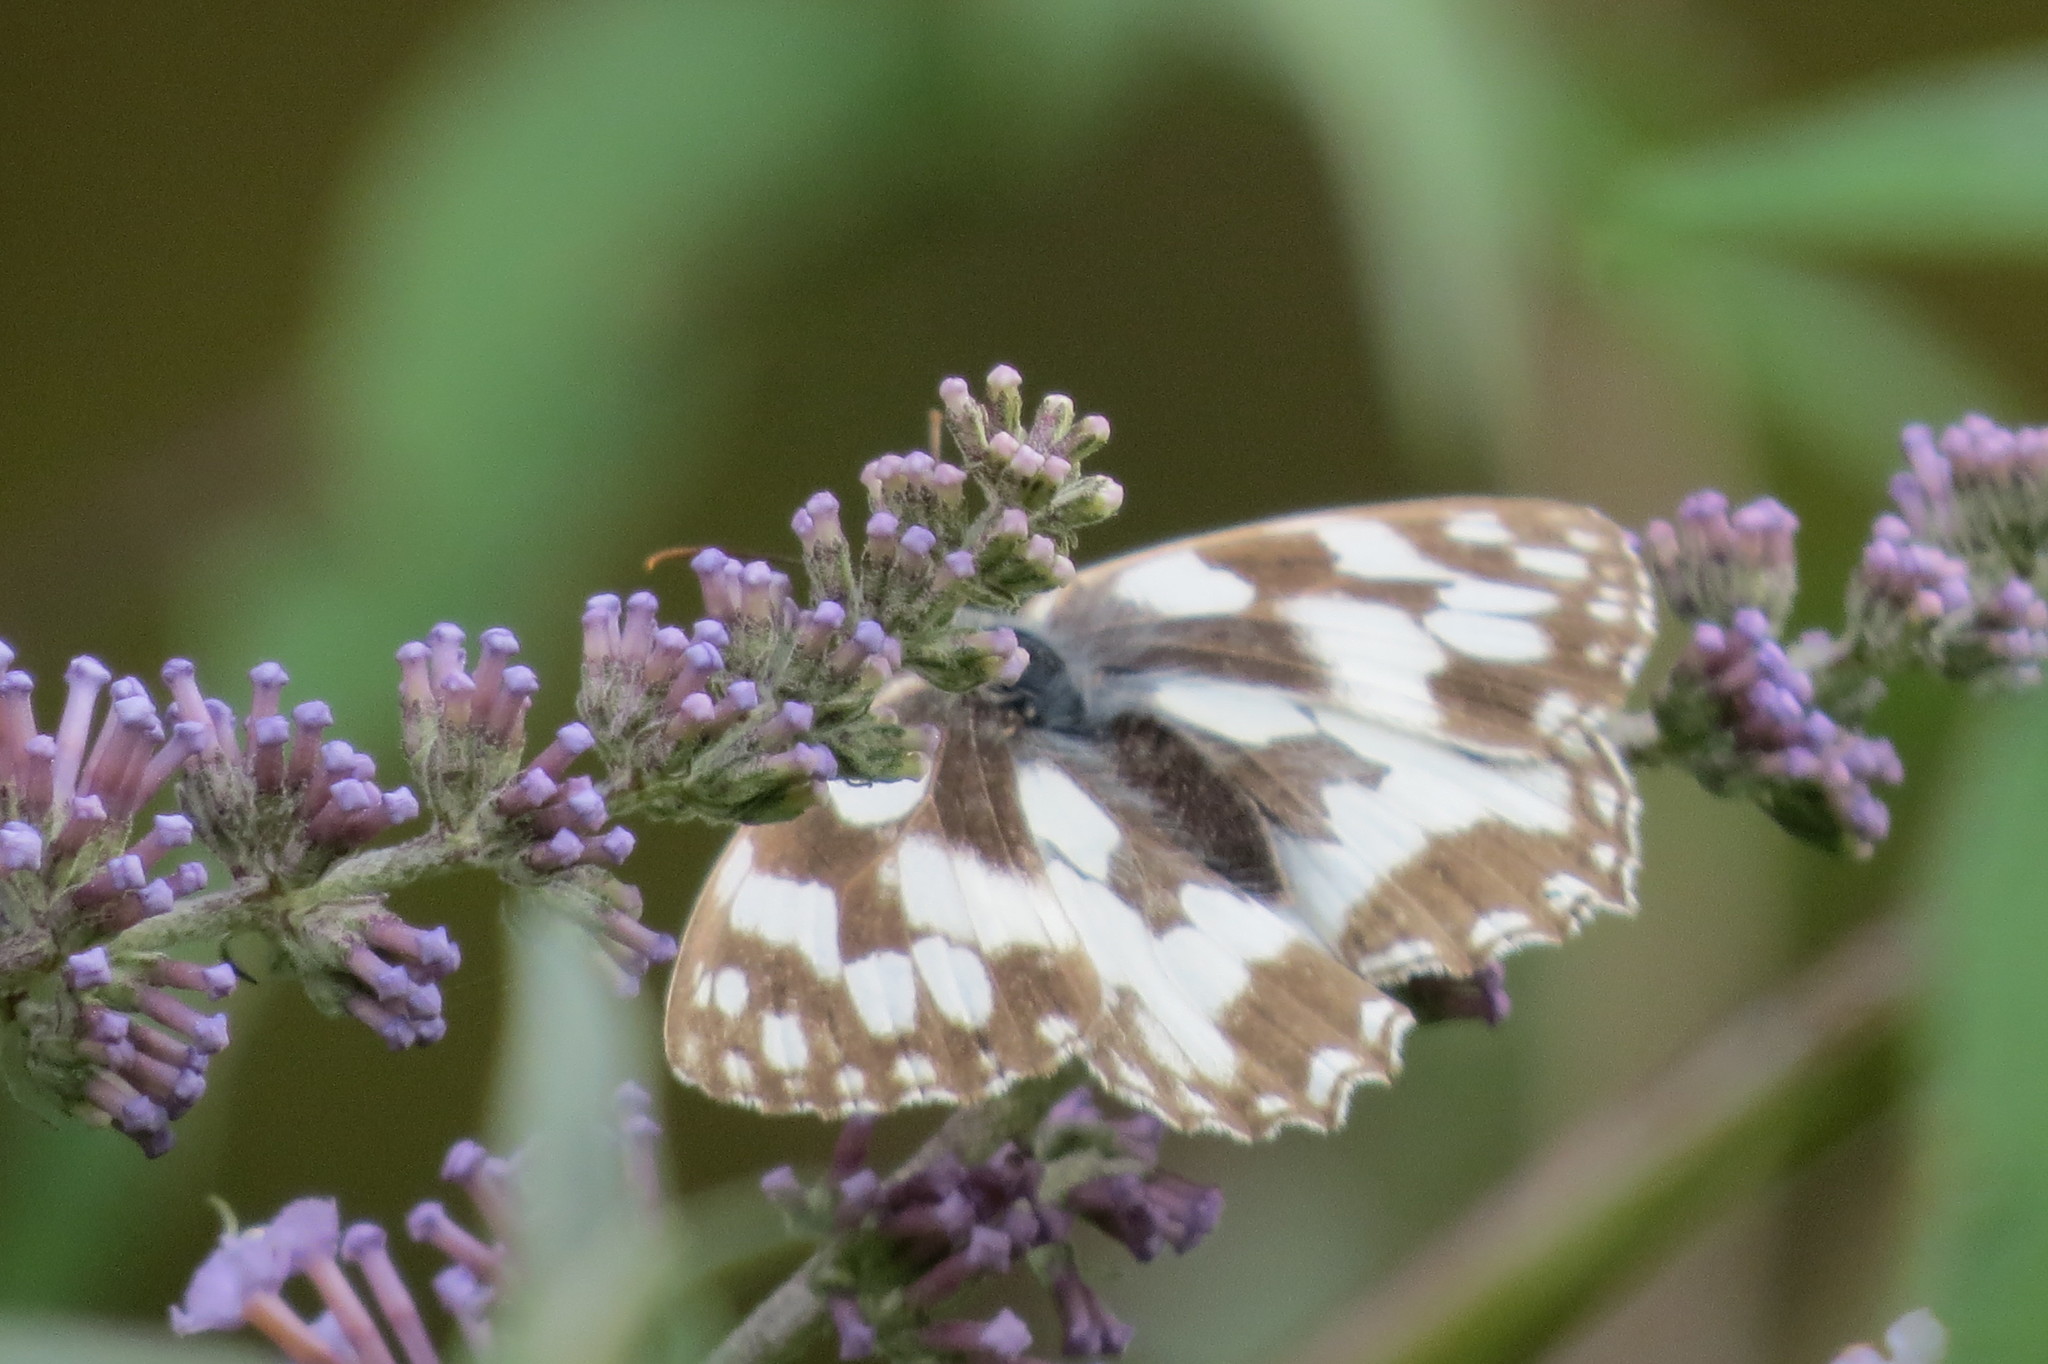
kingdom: Animalia
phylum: Arthropoda
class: Insecta
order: Lepidoptera
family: Nymphalidae
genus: Melanargia
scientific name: Melanargia galathea
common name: Marbled white
